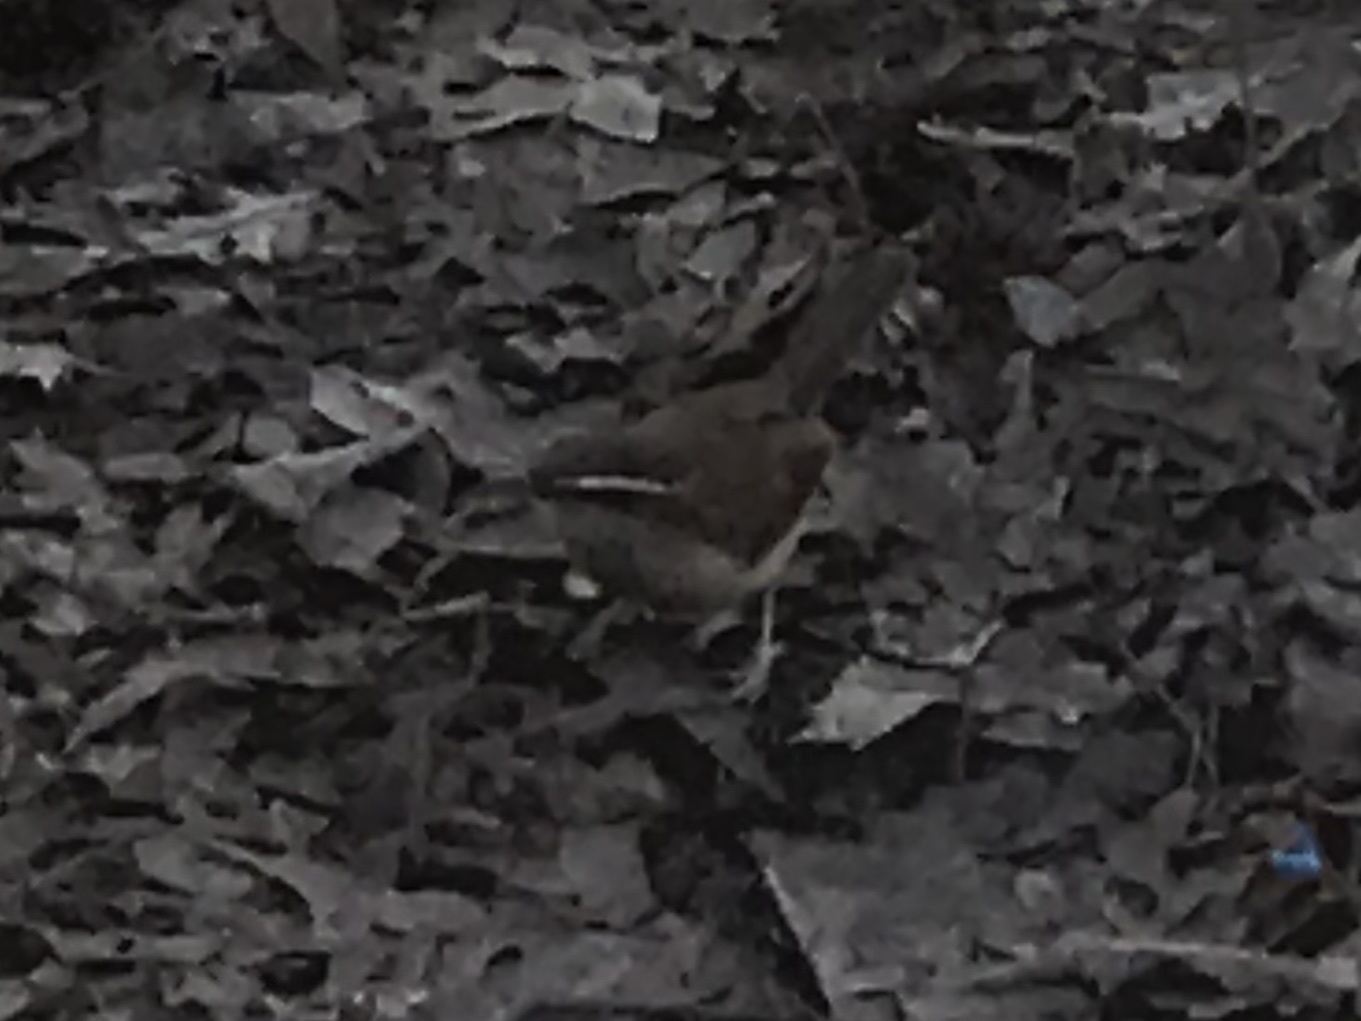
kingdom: Animalia
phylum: Chordata
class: Aves
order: Passeriformes
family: Troglodytidae
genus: Thryothorus
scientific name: Thryothorus ludovicianus
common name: Carolina wren
